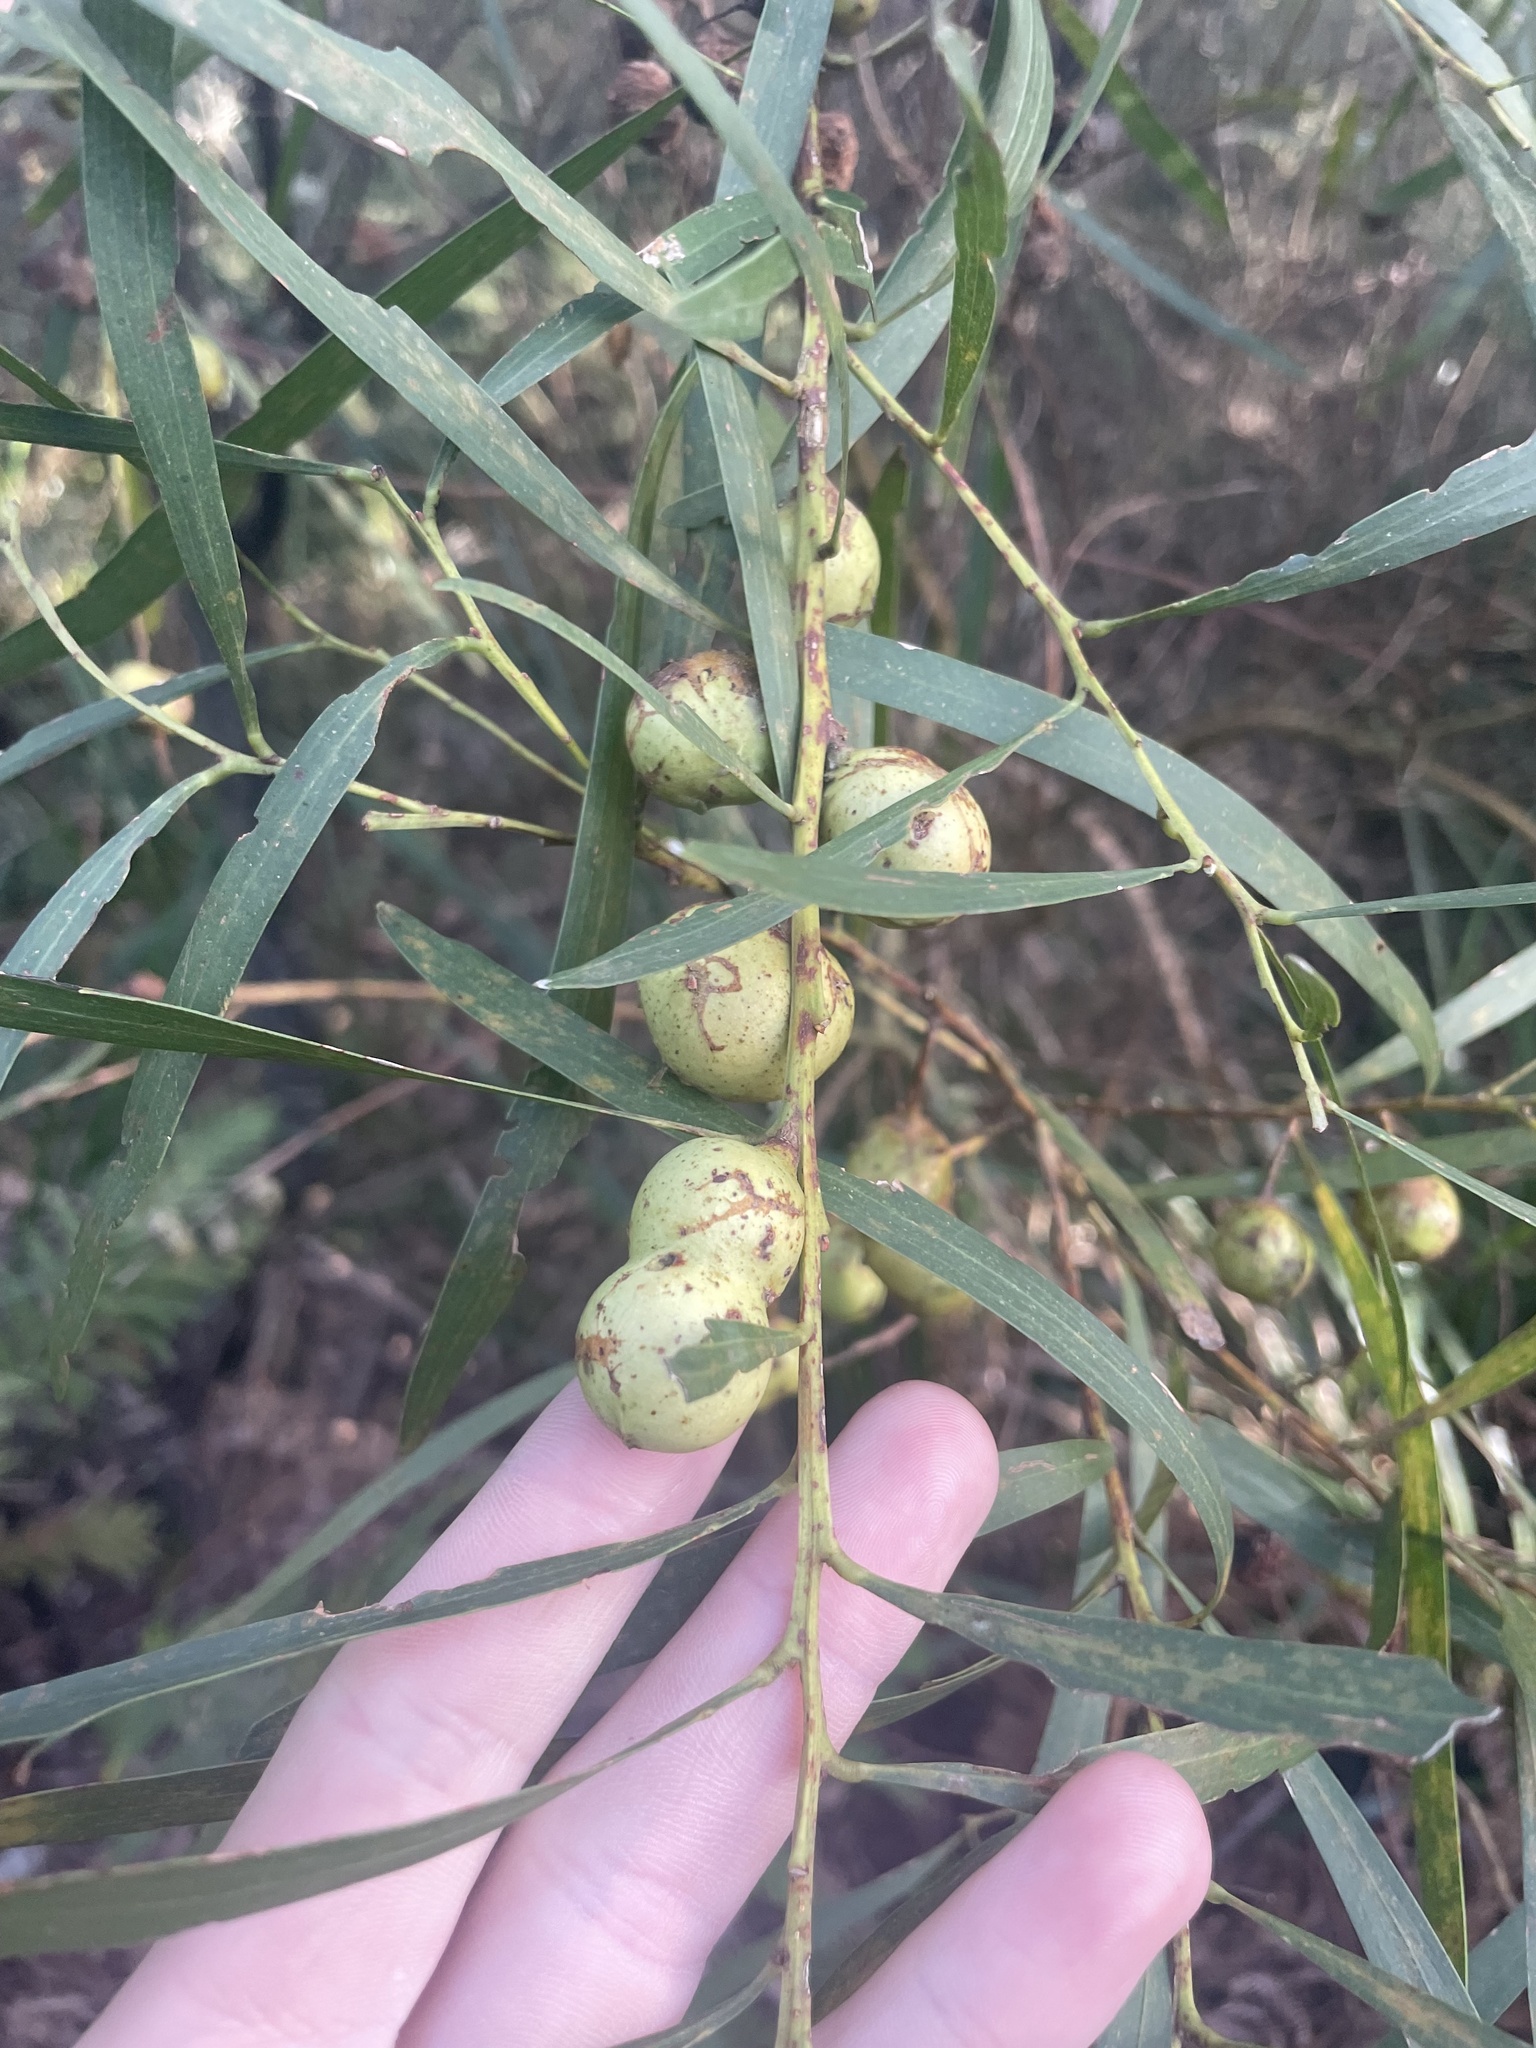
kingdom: Plantae
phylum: Tracheophyta
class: Magnoliopsida
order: Fabales
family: Fabaceae
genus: Acacia
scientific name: Acacia mucronata
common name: Variable sallow wattle
